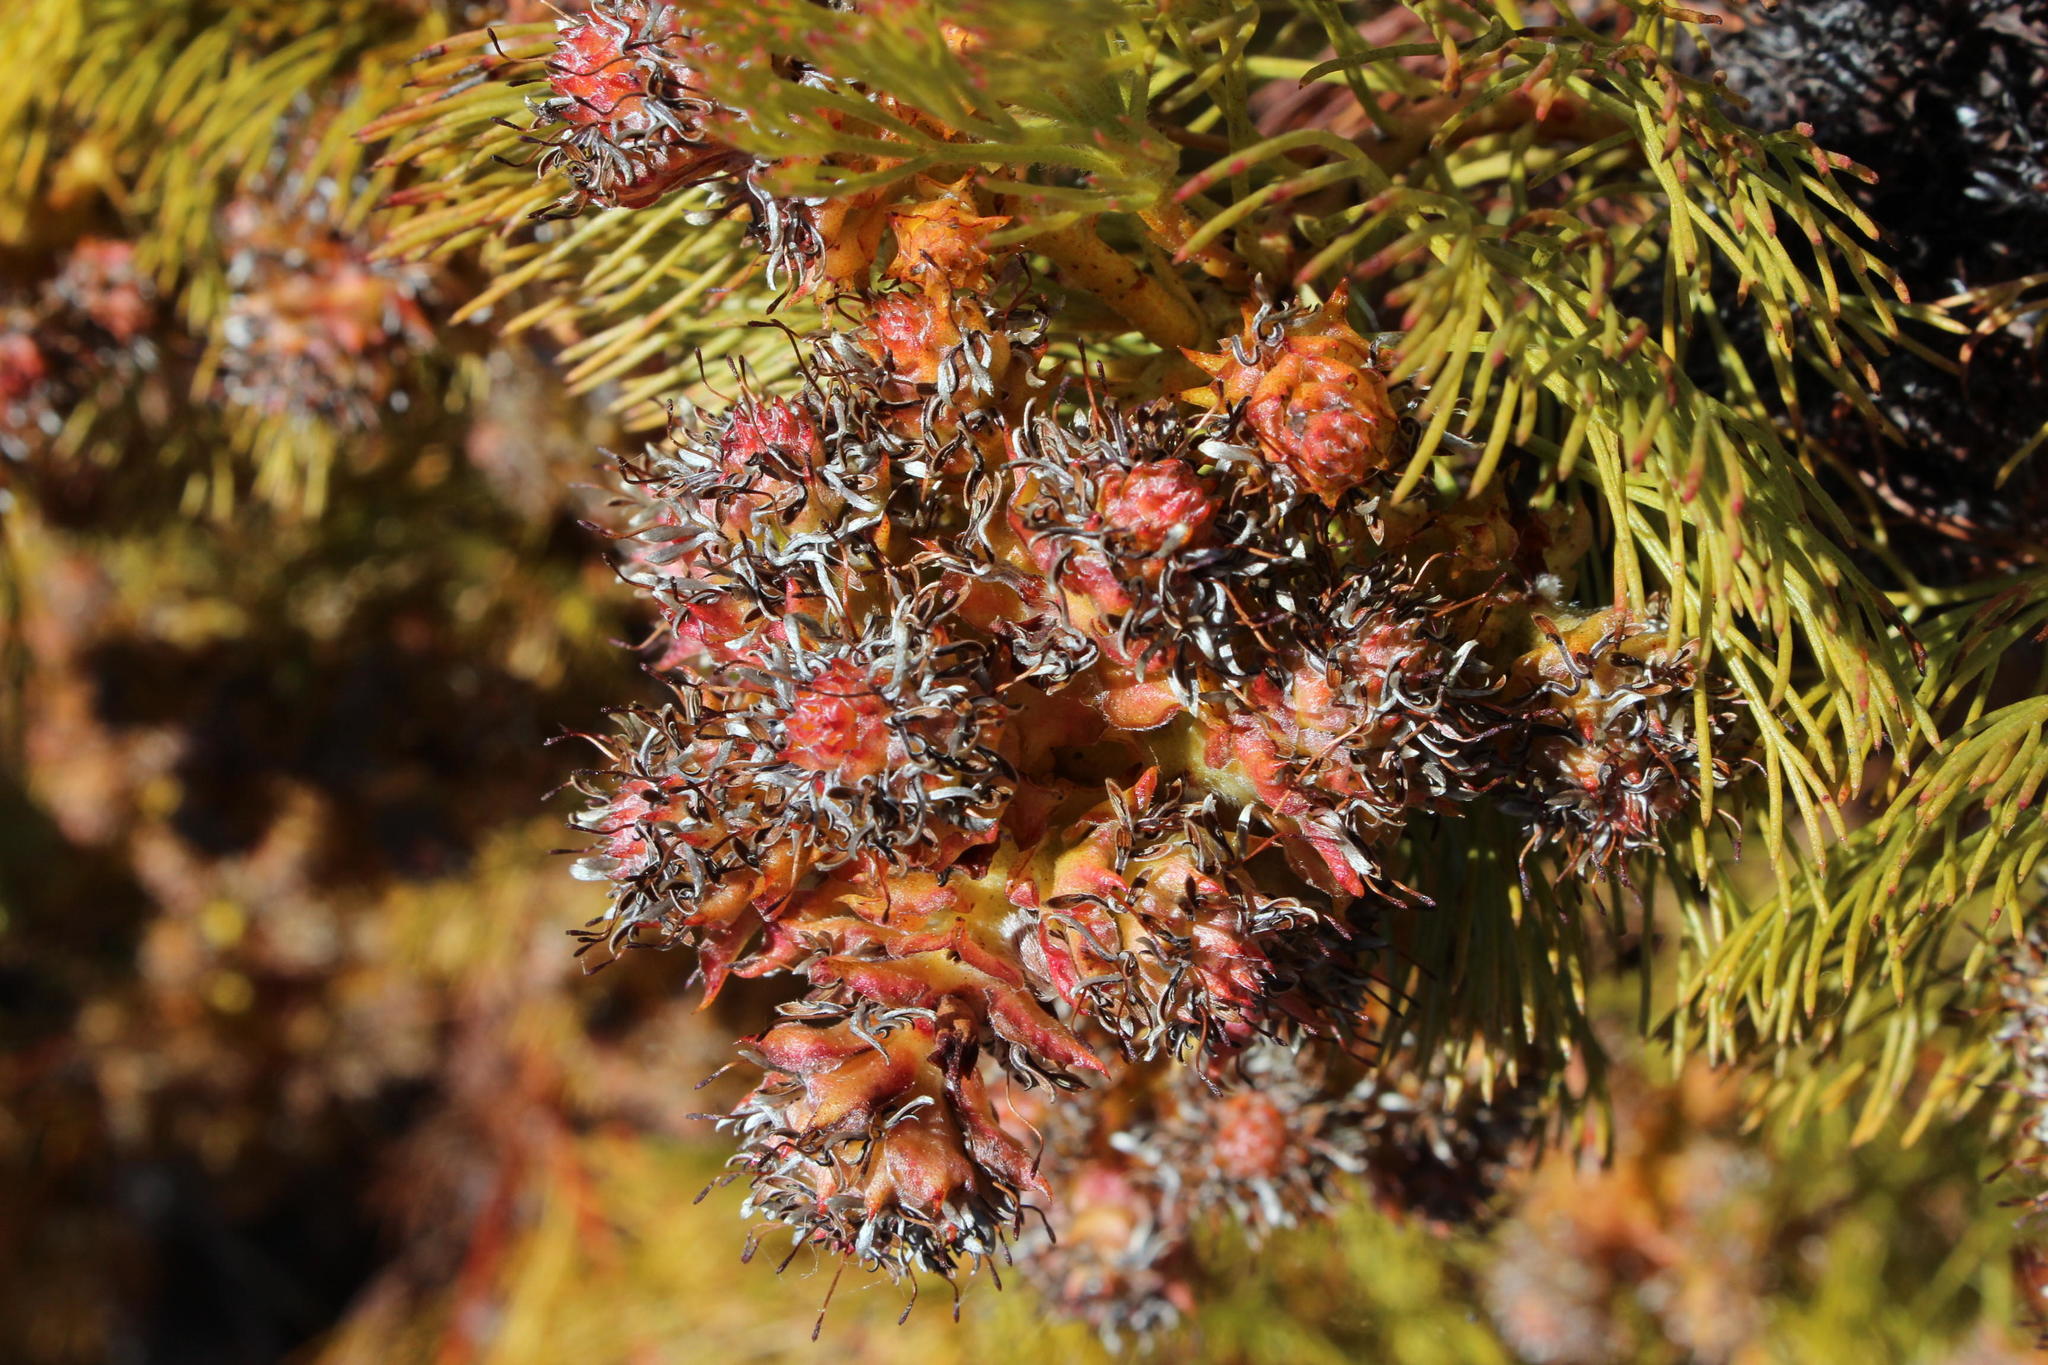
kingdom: Plantae
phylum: Tracheophyta
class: Magnoliopsida
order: Proteales
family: Proteaceae
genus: Serruria
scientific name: Serruria glomerata
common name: Cluster spiderhead
